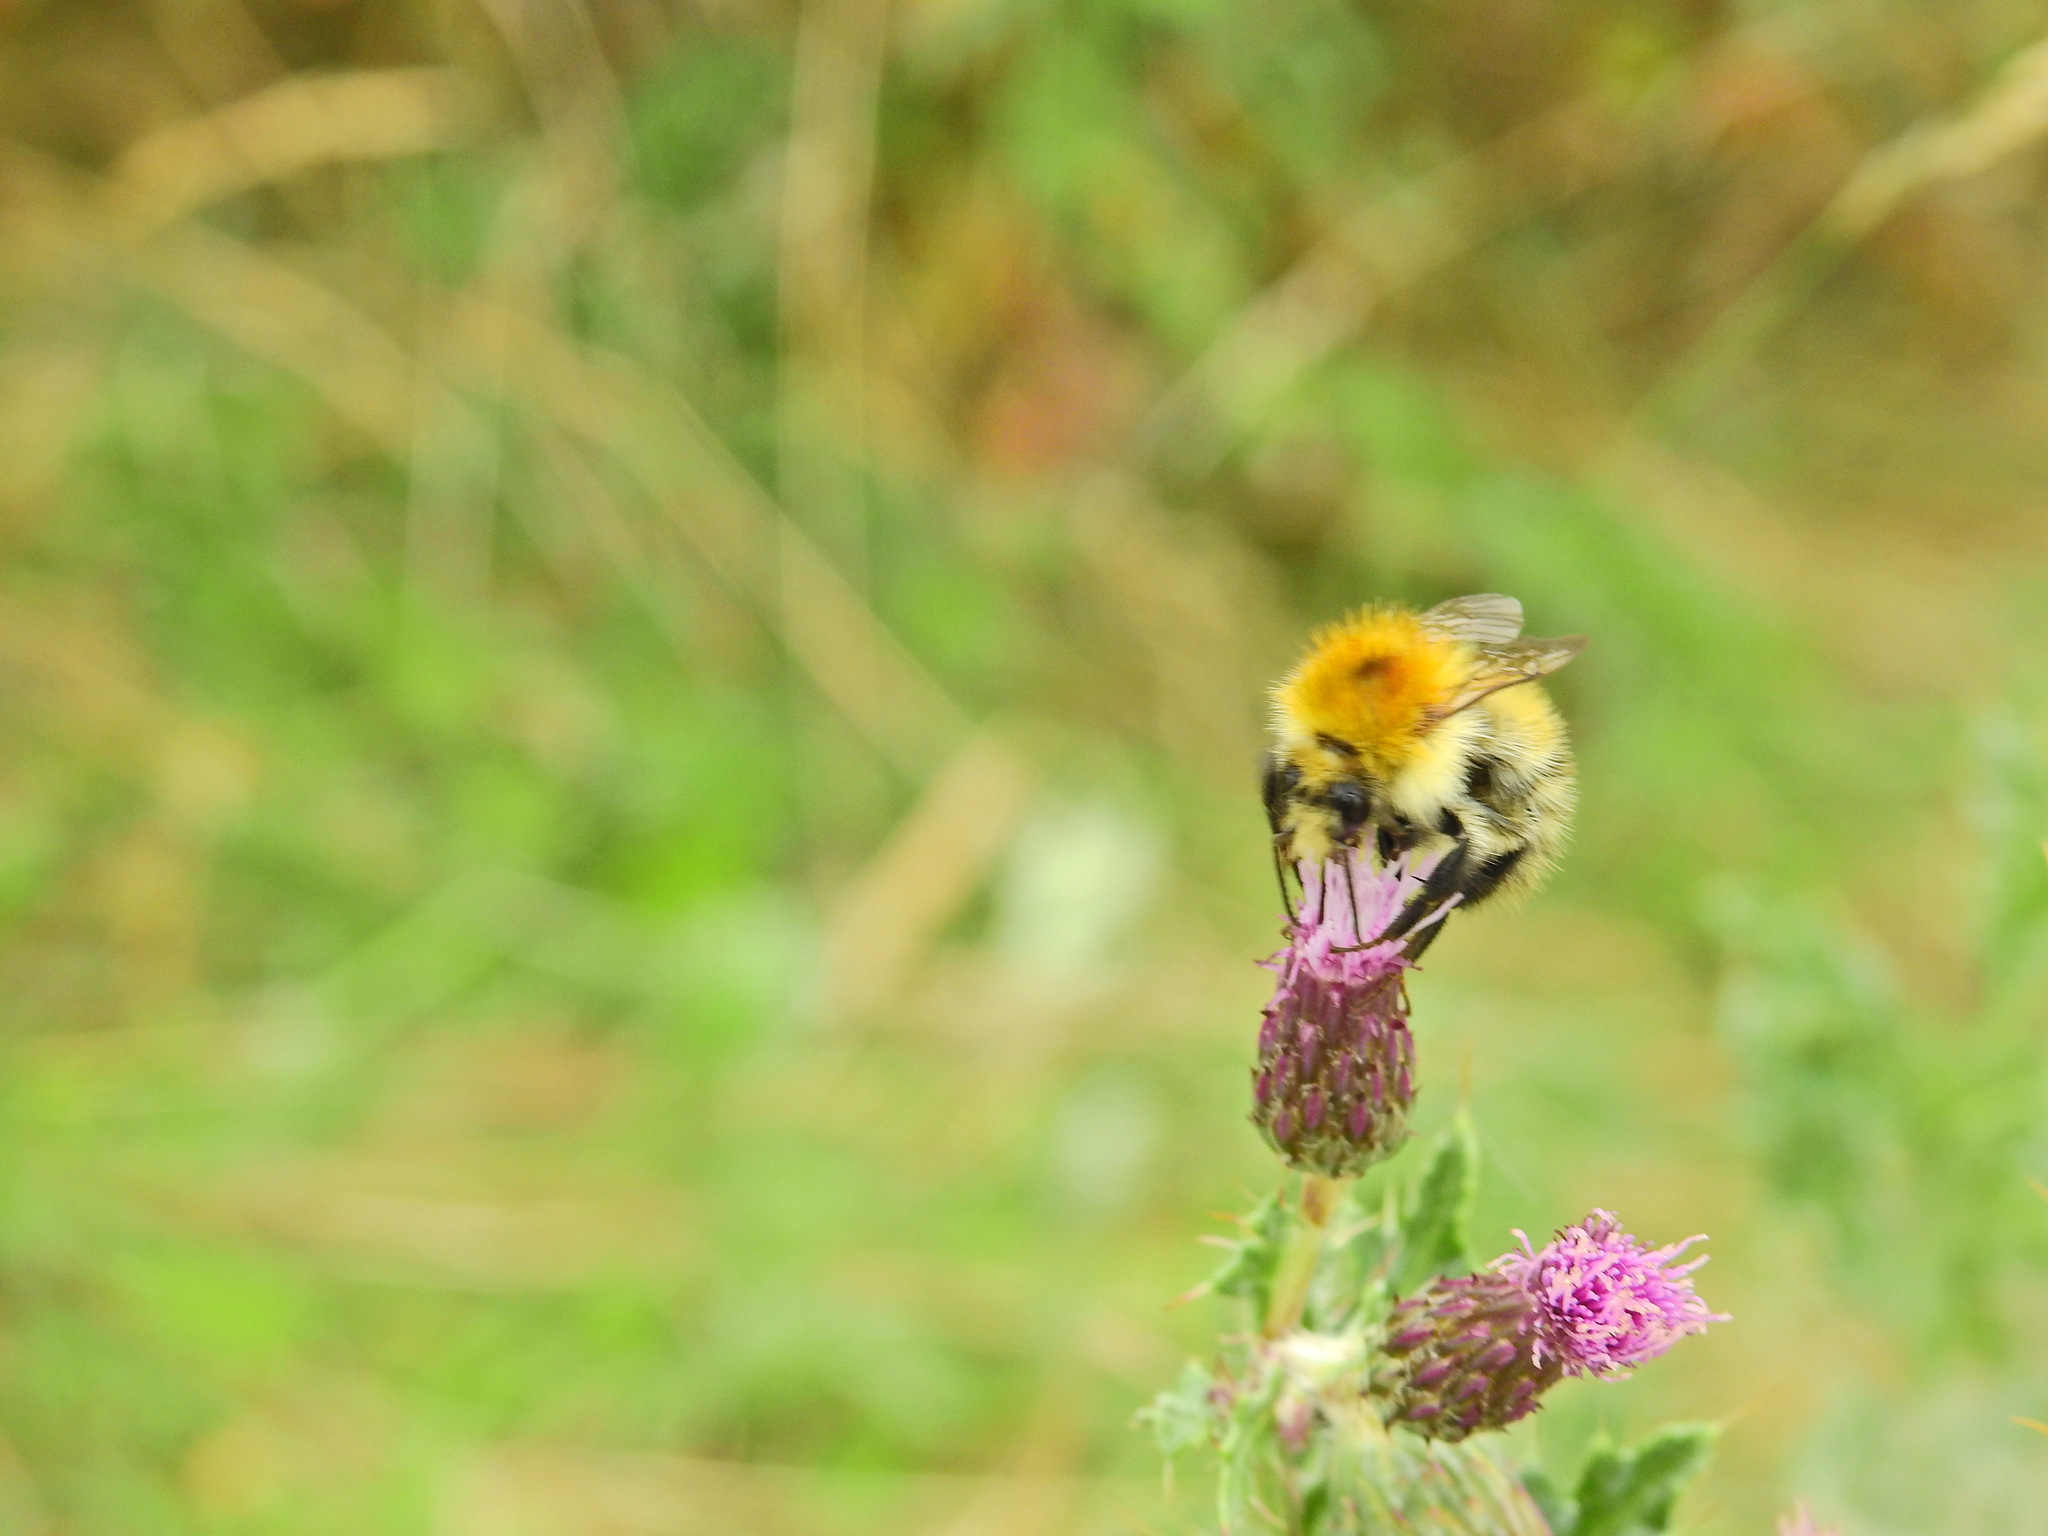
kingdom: Animalia
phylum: Arthropoda
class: Insecta
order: Hymenoptera
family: Apidae
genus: Bombus
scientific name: Bombus pascuorum
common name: Common carder bee
